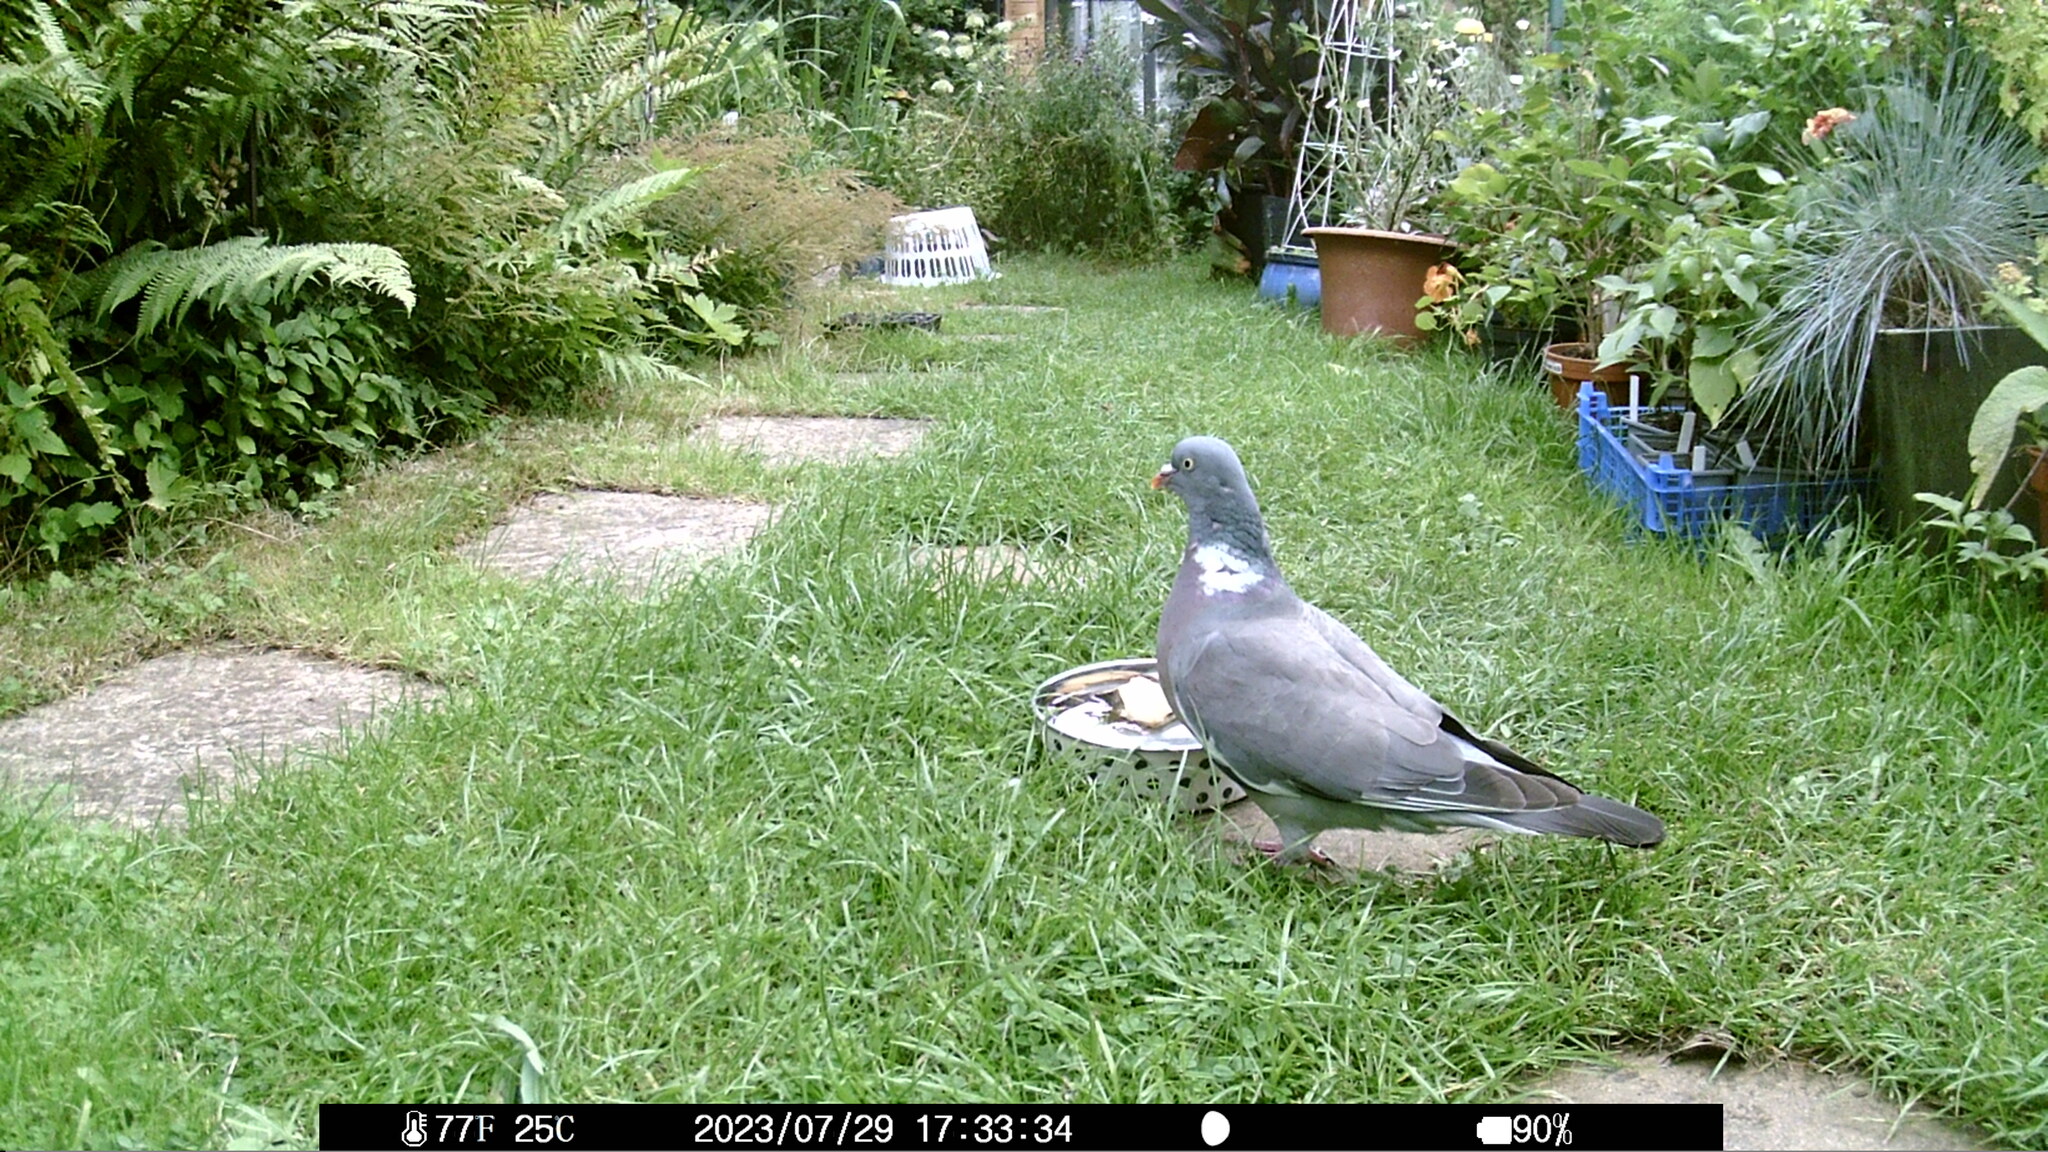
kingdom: Animalia
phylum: Chordata
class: Aves
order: Columbiformes
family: Columbidae
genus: Columba
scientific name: Columba palumbus
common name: Common wood pigeon
